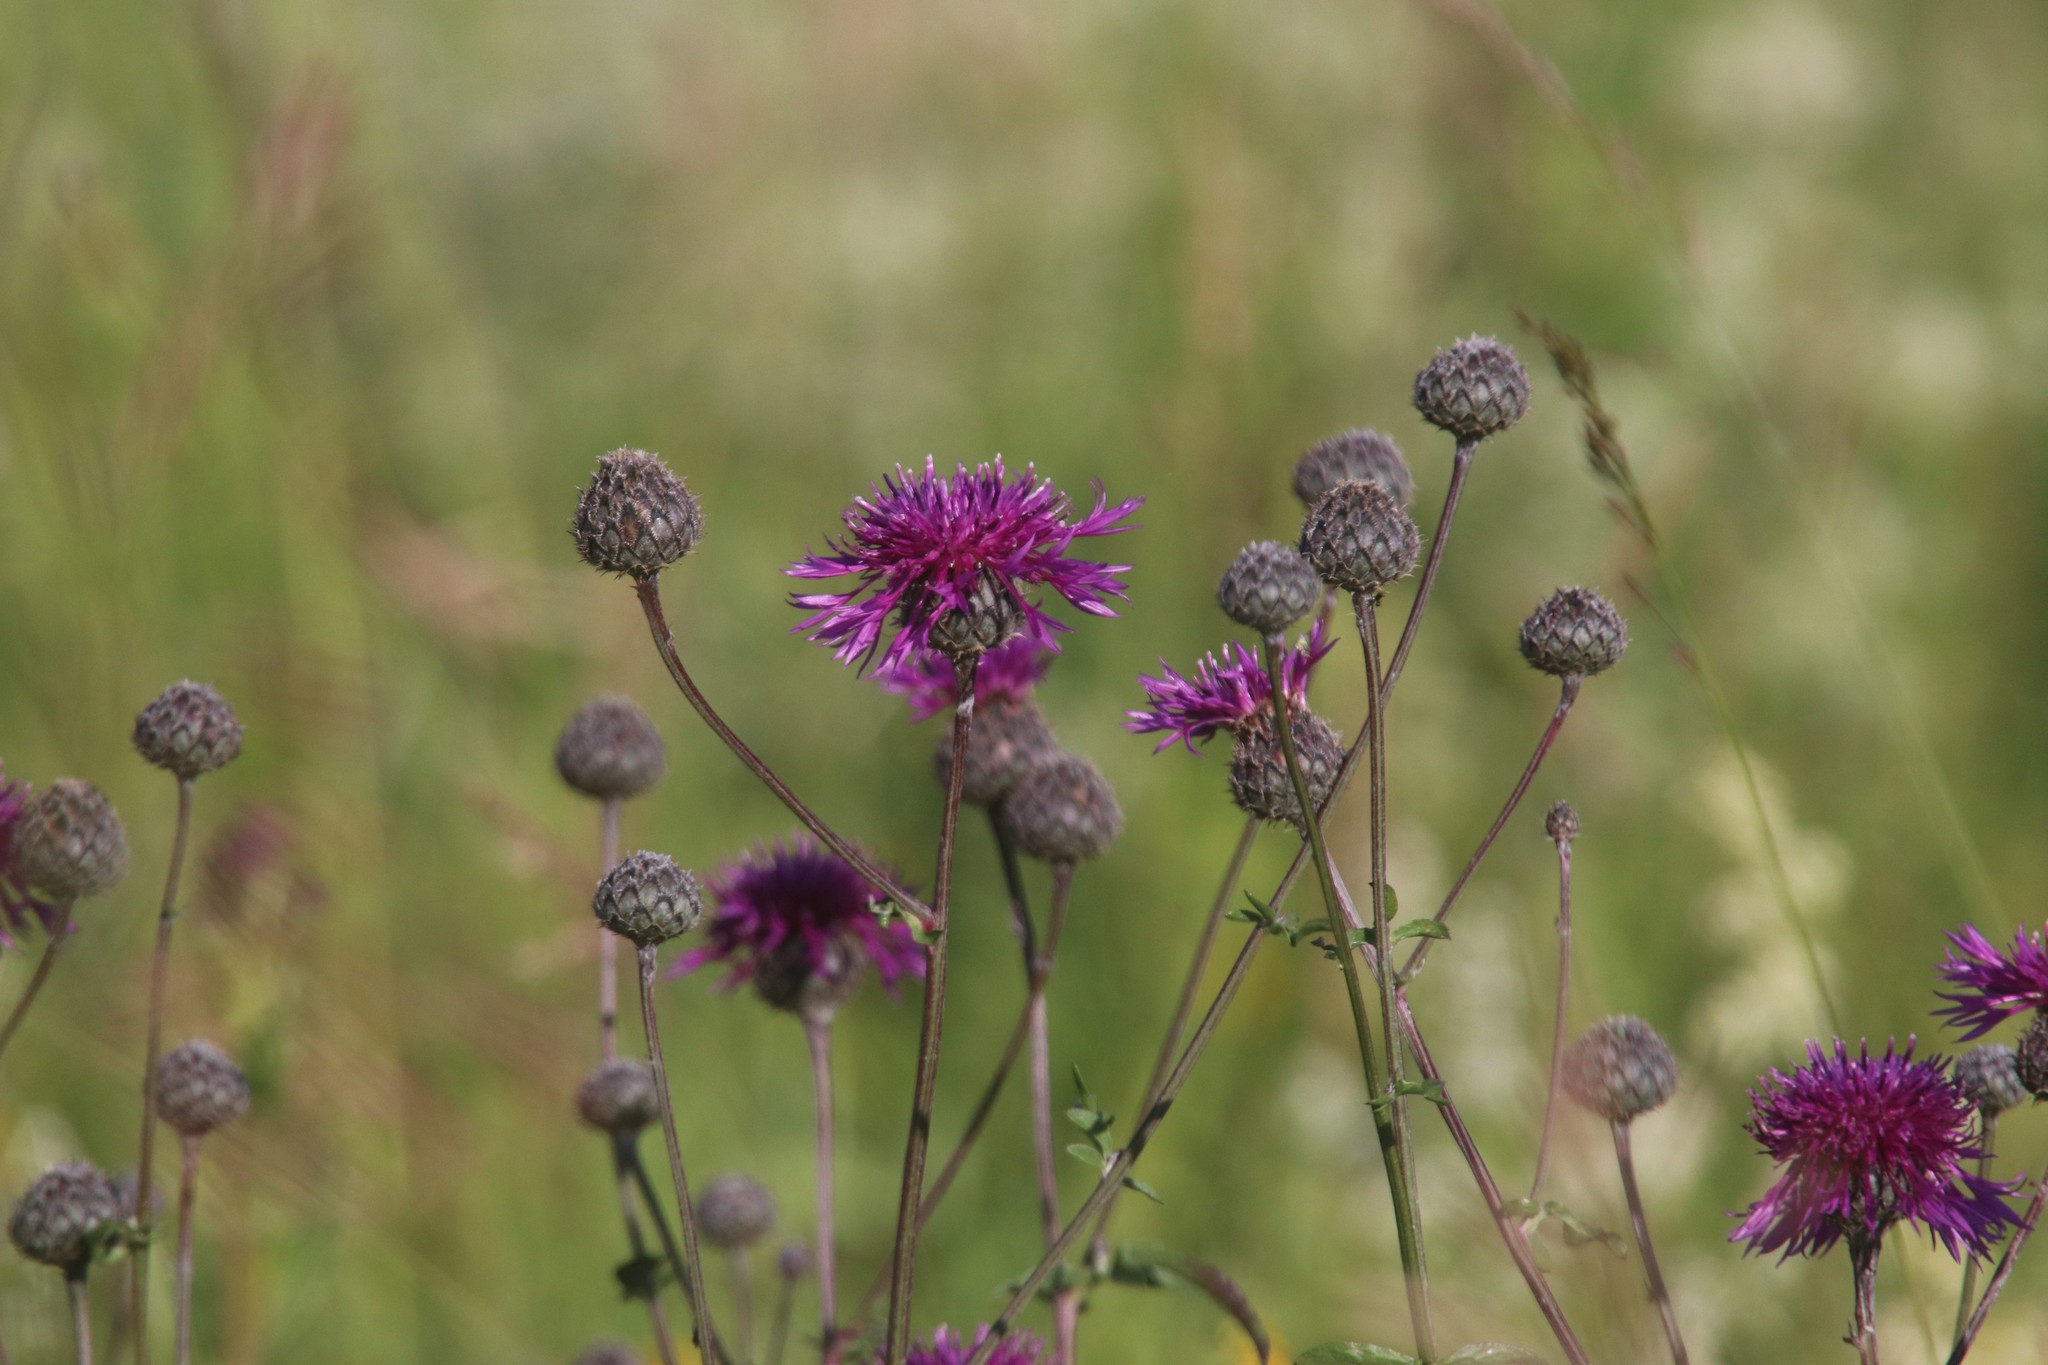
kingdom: Plantae
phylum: Tracheophyta
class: Magnoliopsida
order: Asterales
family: Asteraceae
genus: Centaurea
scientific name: Centaurea scabiosa
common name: Greater knapweed
